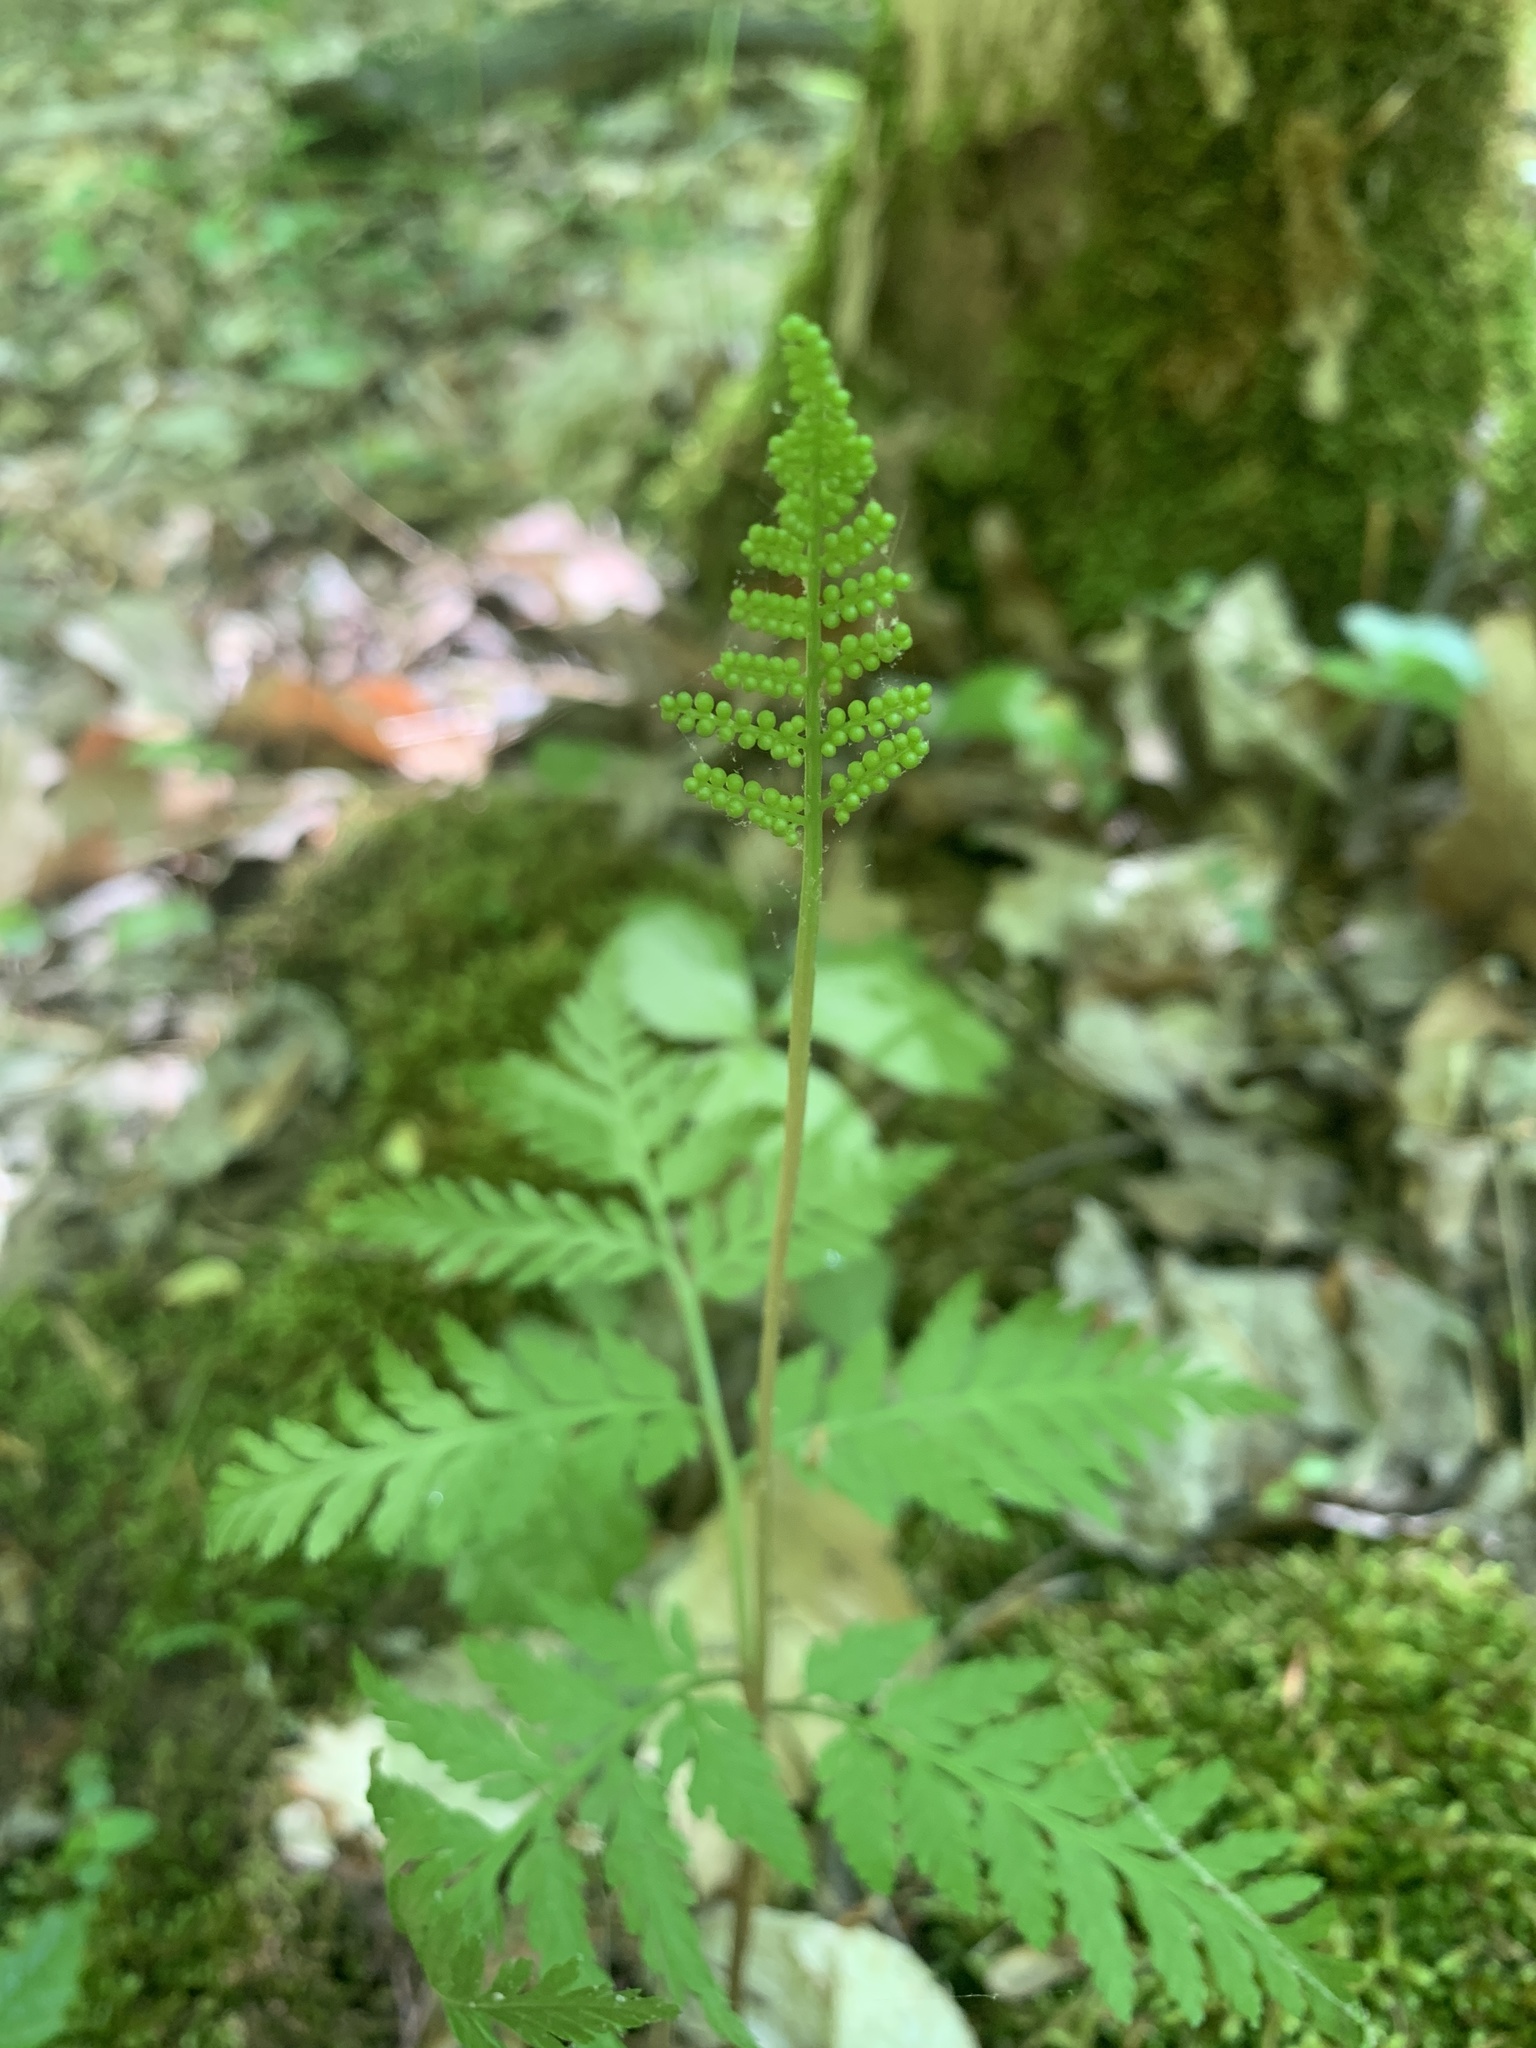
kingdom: Plantae
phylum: Tracheophyta
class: Polypodiopsida
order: Ophioglossales
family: Ophioglossaceae
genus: Botrypus
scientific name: Botrypus virginianus
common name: Common grapefern
